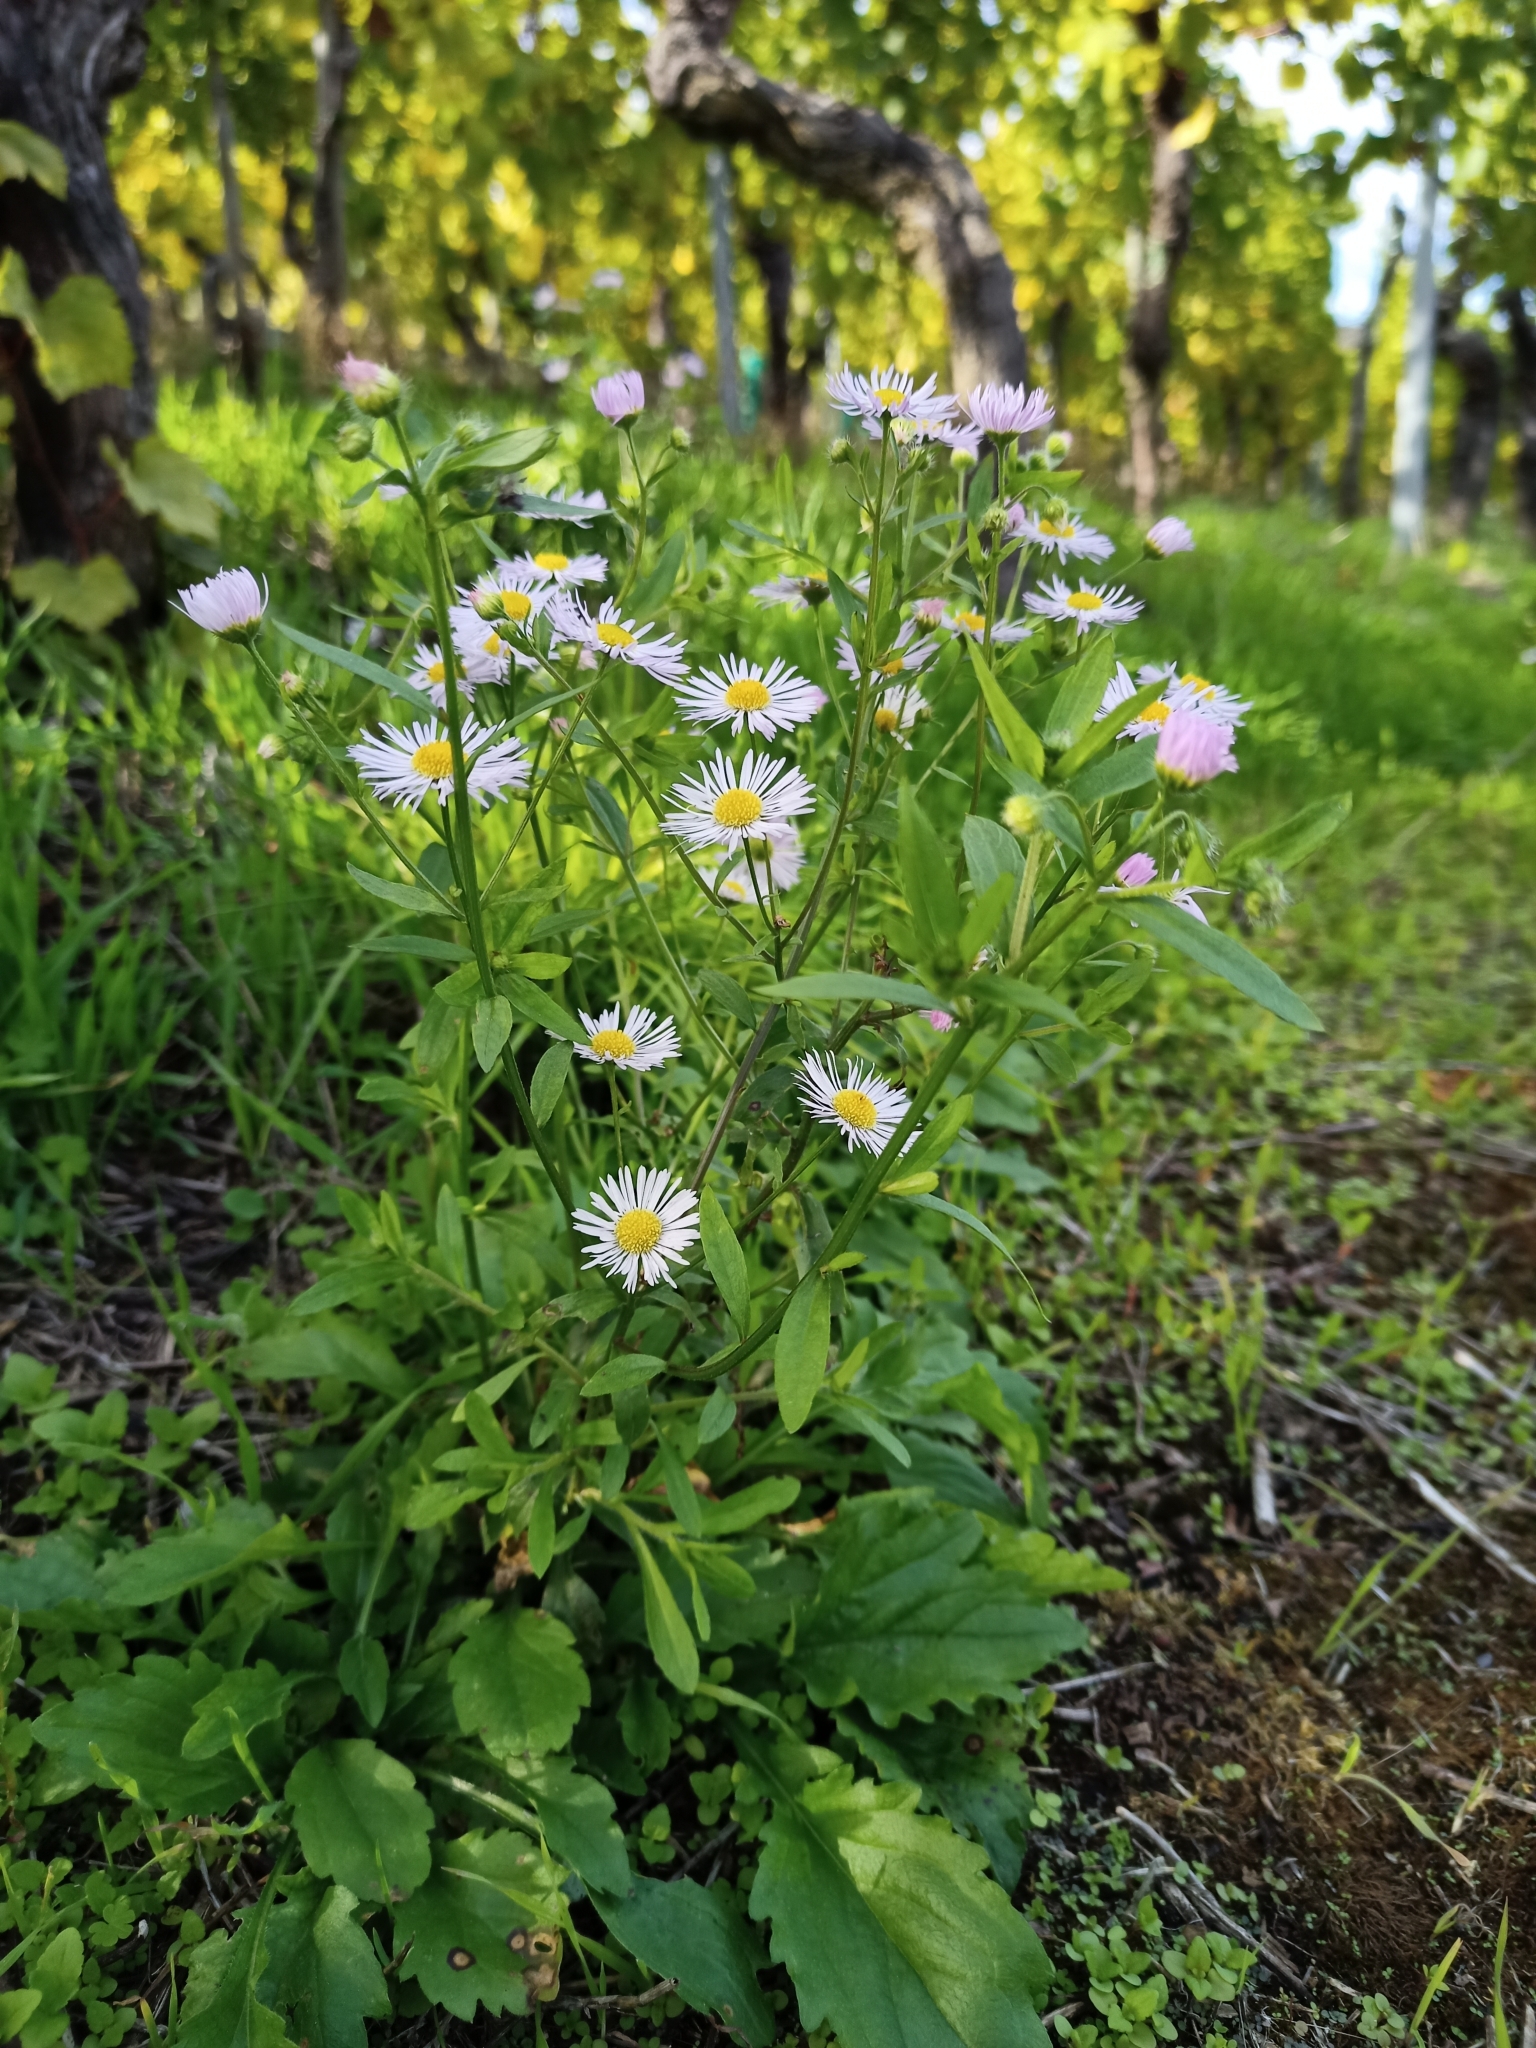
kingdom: Plantae
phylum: Tracheophyta
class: Magnoliopsida
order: Asterales
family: Asteraceae
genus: Erigeron
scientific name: Erigeron annuus
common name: Tall fleabane
